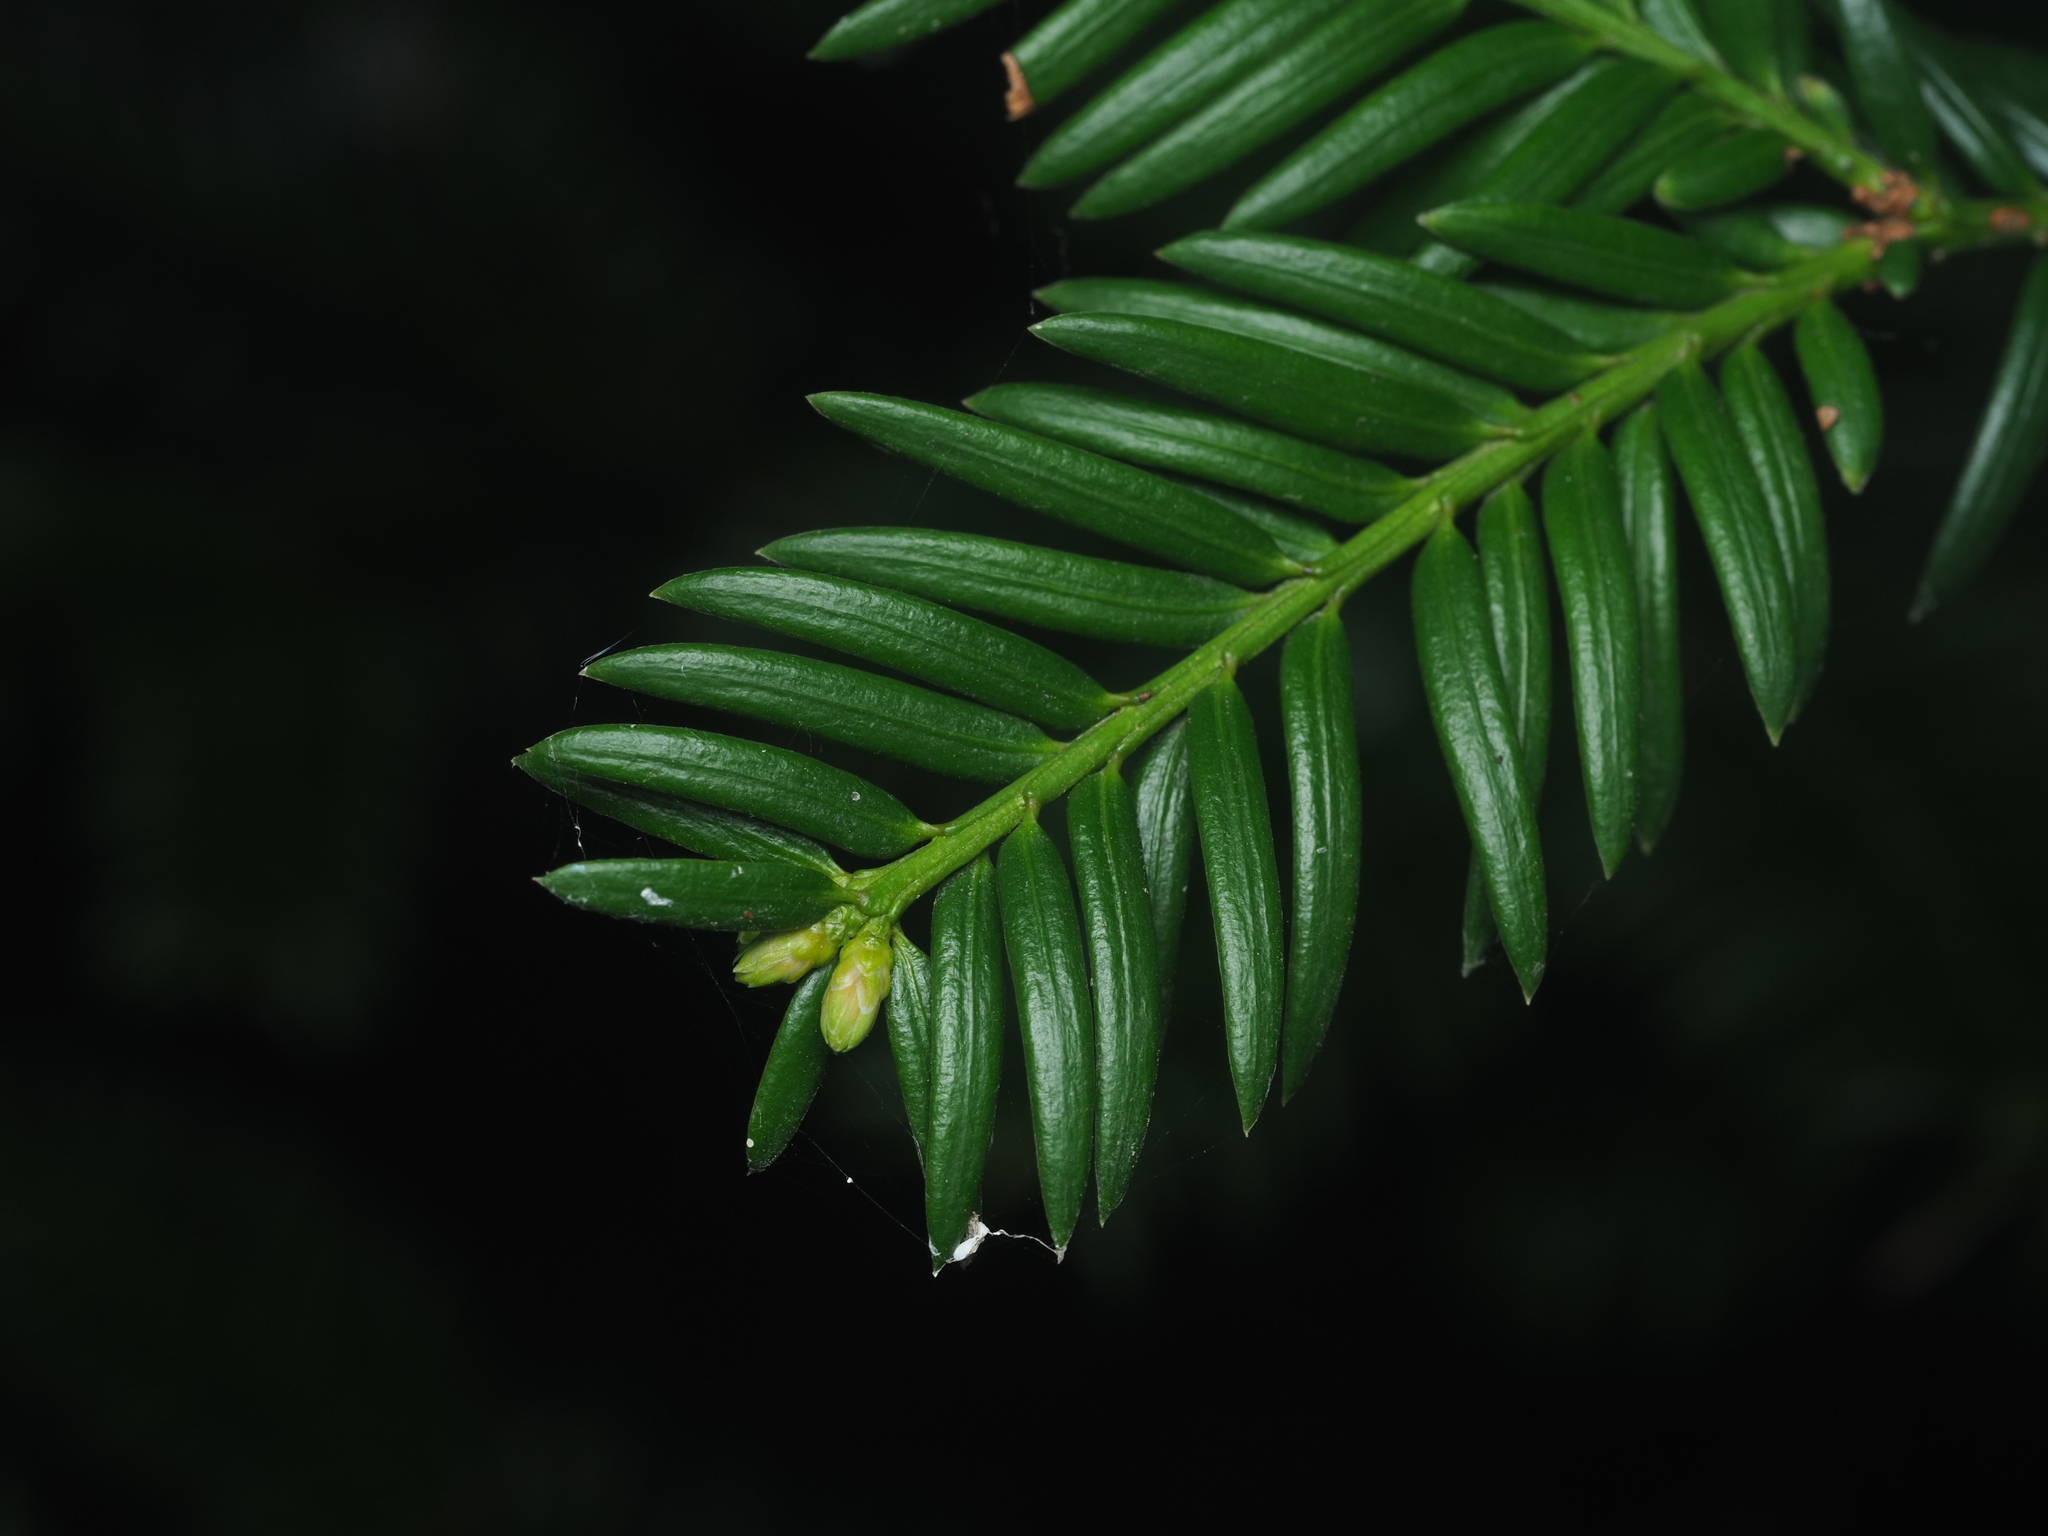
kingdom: Plantae
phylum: Tracheophyta
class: Pinopsida
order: Pinales
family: Taxaceae
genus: Taxus
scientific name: Taxus baccata
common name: Yew
